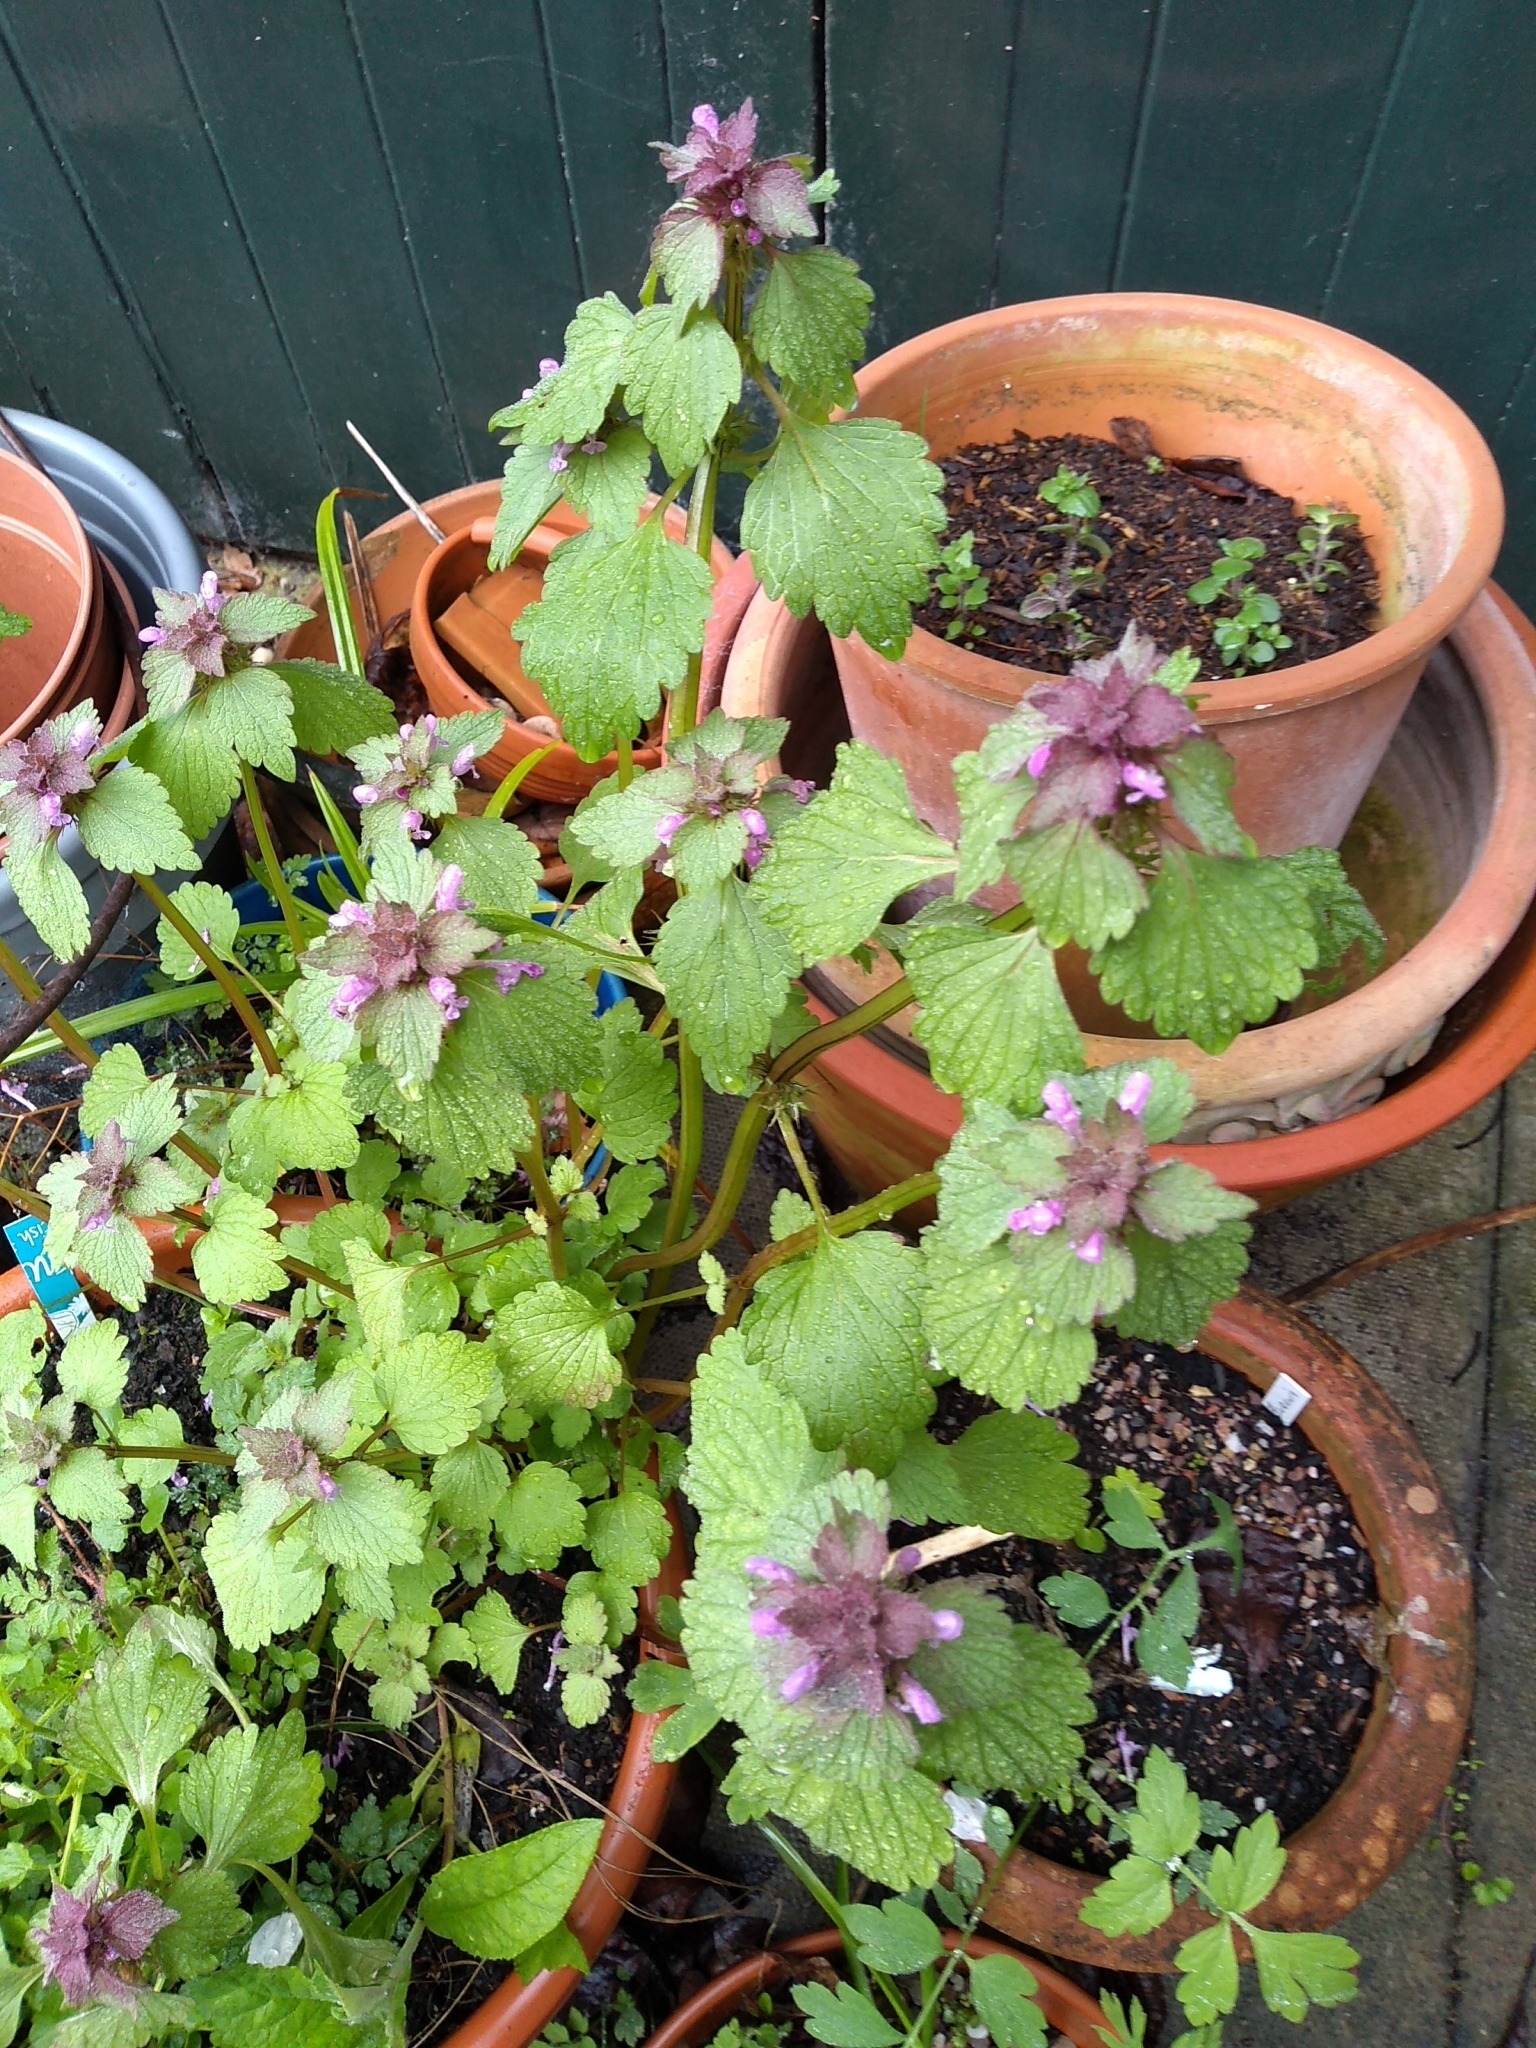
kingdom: Plantae
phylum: Tracheophyta
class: Magnoliopsida
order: Lamiales
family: Lamiaceae
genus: Lamium
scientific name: Lamium purpureum
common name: Red dead-nettle
